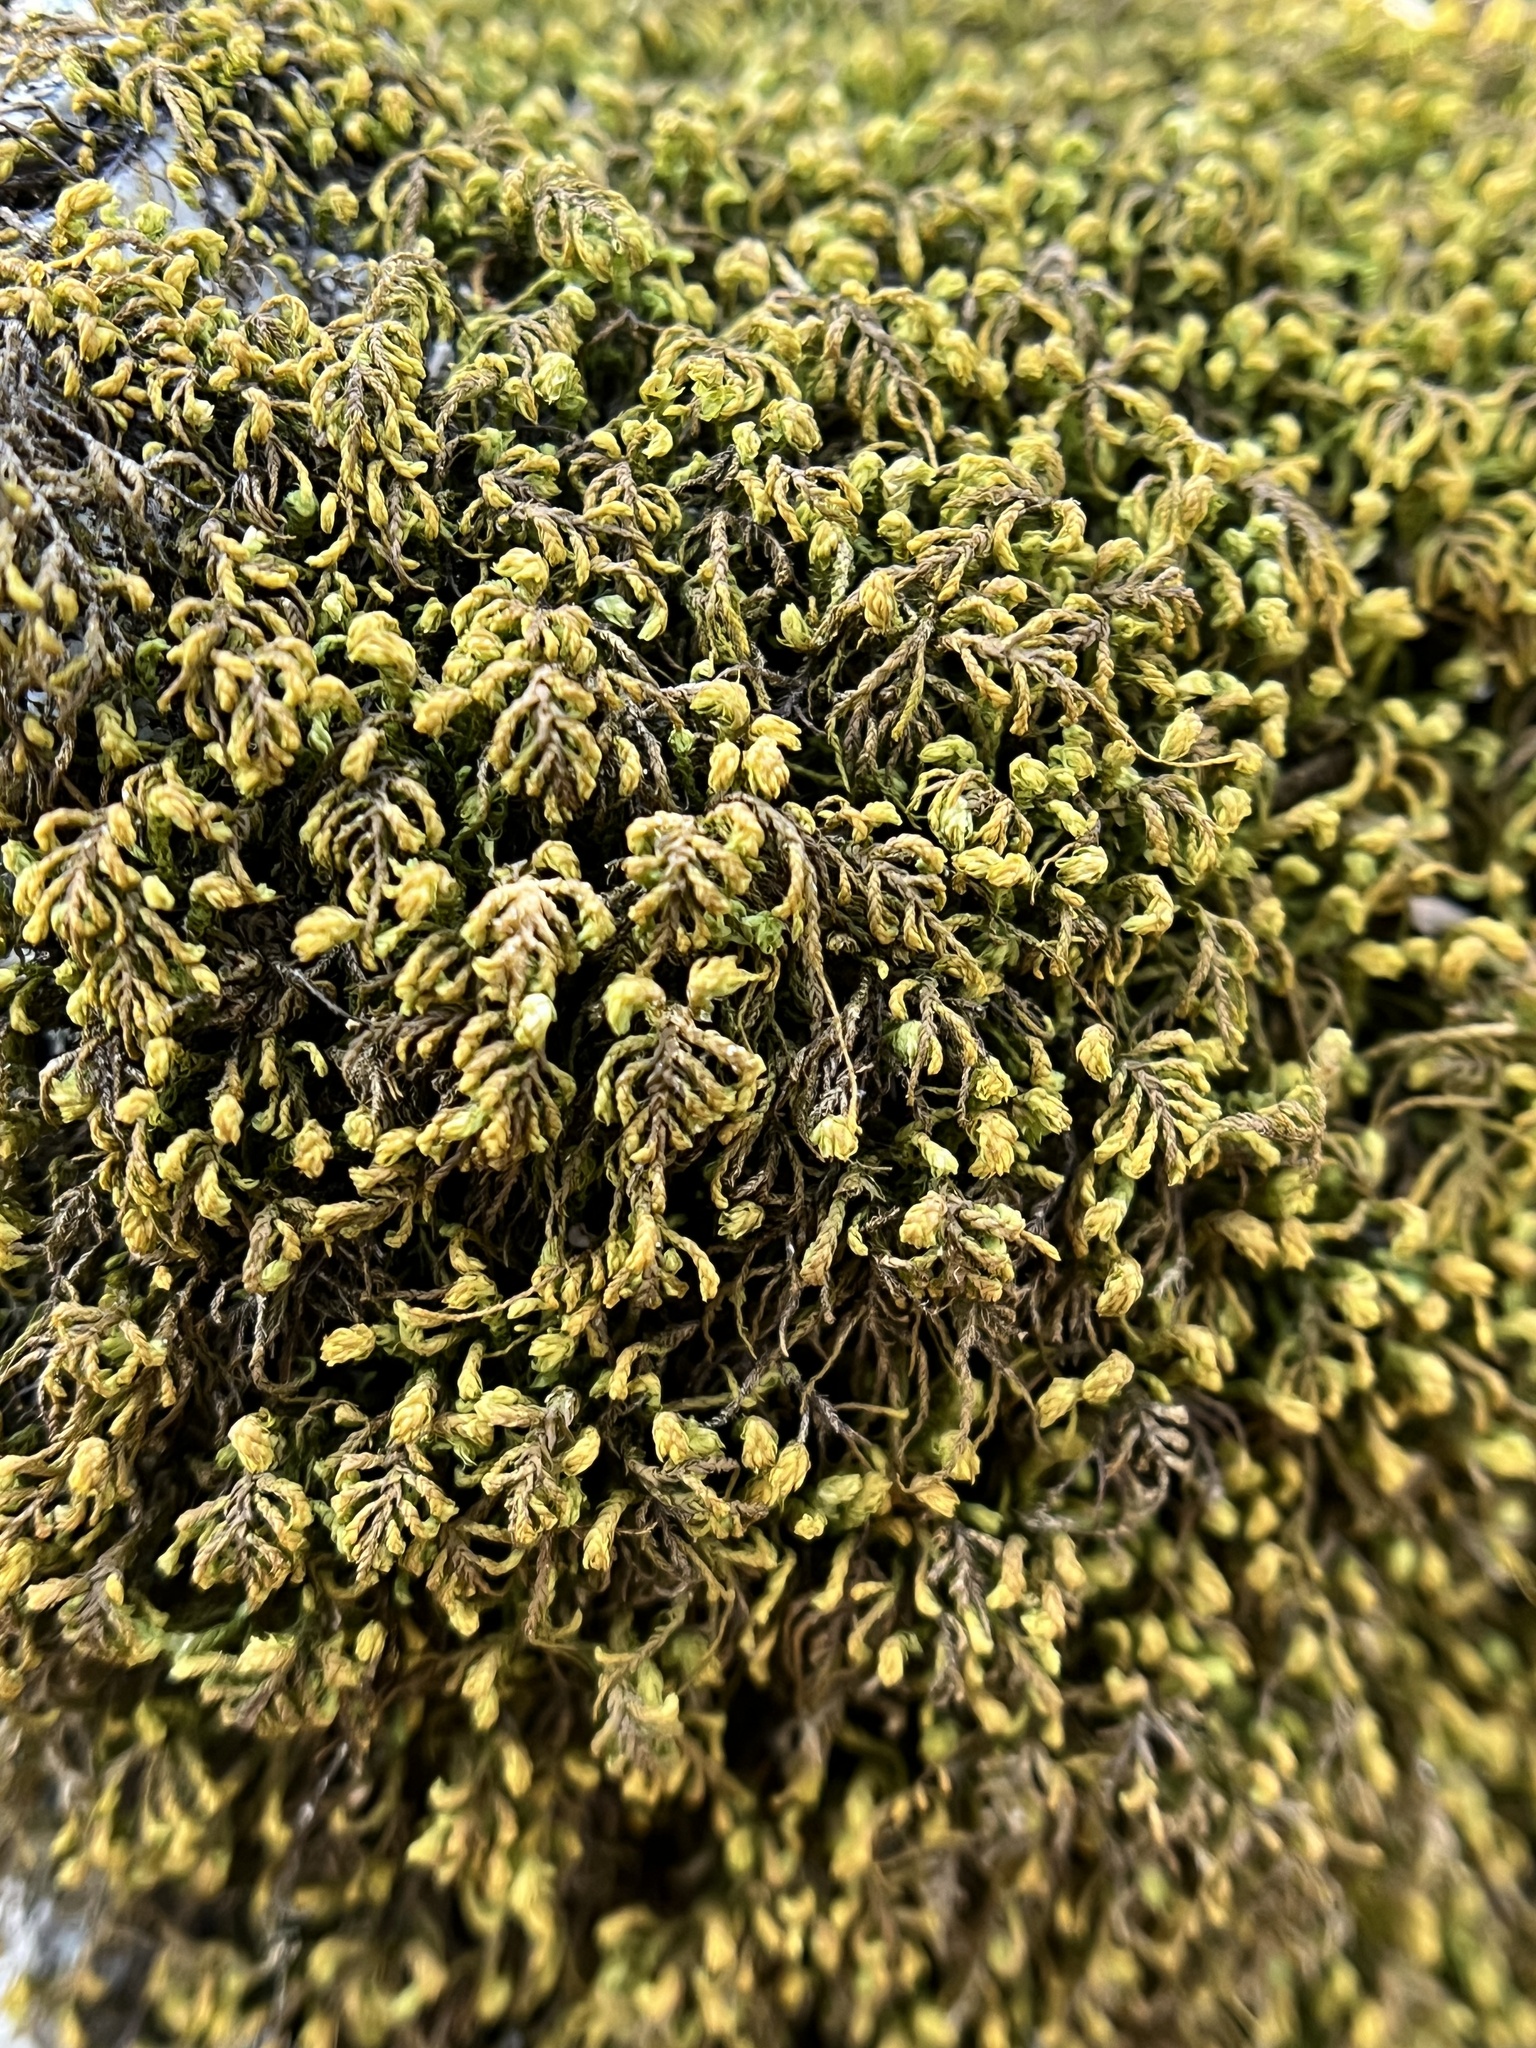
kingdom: Plantae
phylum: Bryophyta
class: Bryopsida
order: Hypnales
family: Neckeraceae
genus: Pseudanomodon
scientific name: Pseudanomodon attenuatus
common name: Tree-skirt moss
